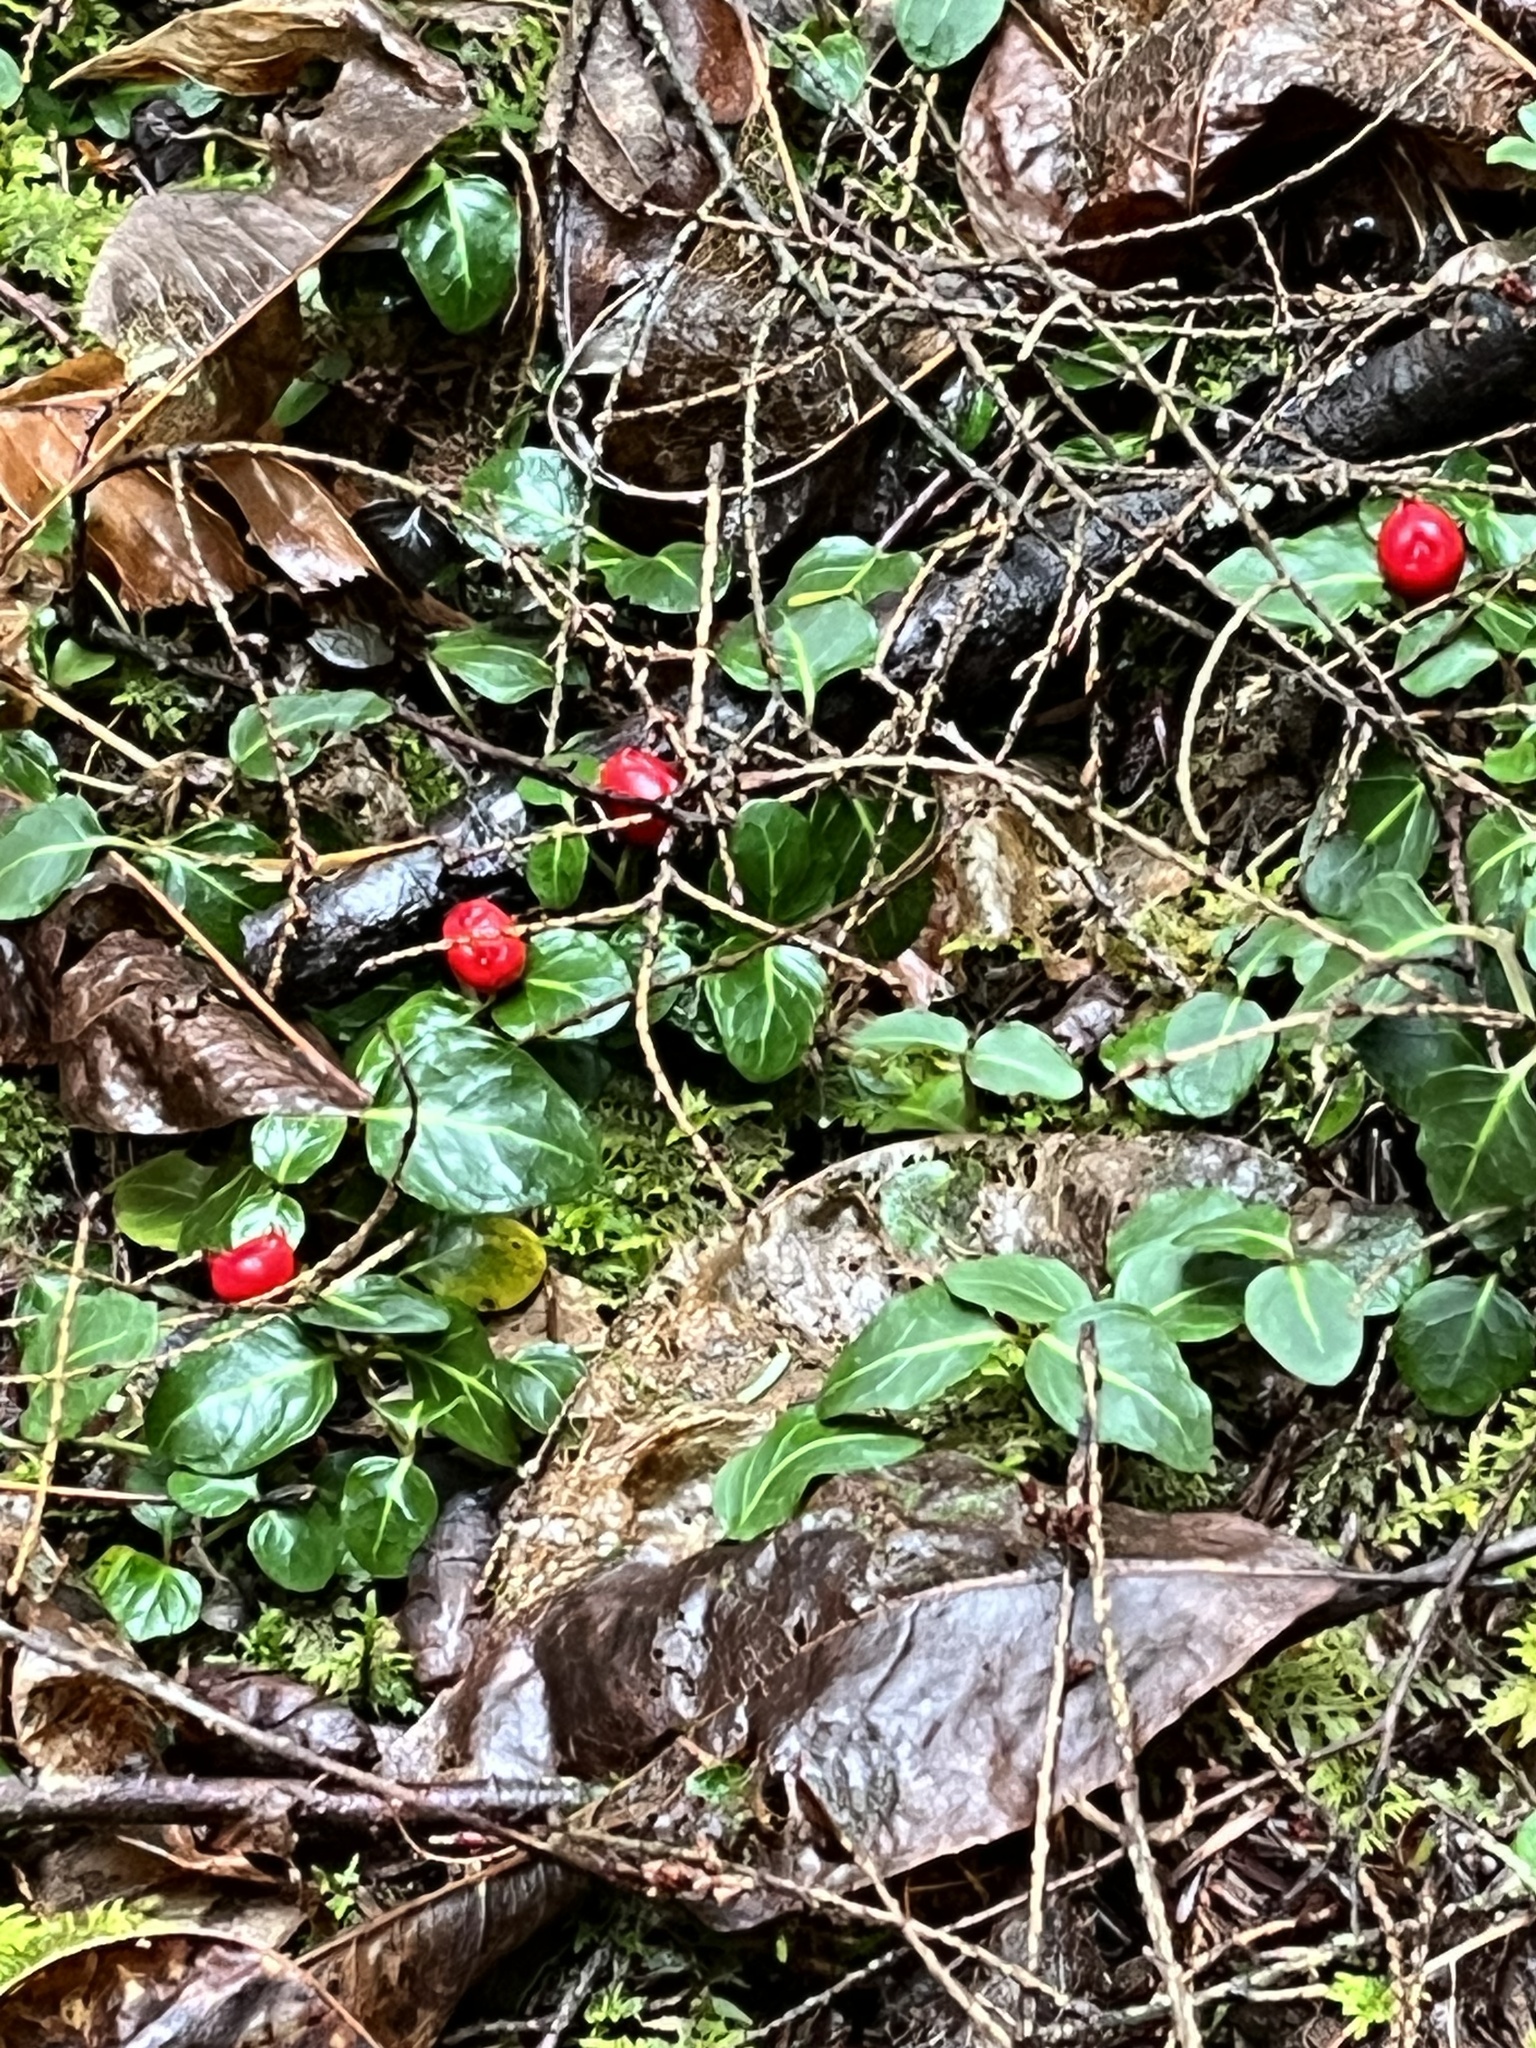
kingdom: Plantae
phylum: Tracheophyta
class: Magnoliopsida
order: Gentianales
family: Rubiaceae
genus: Mitchella
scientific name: Mitchella repens
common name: Partridge-berry
